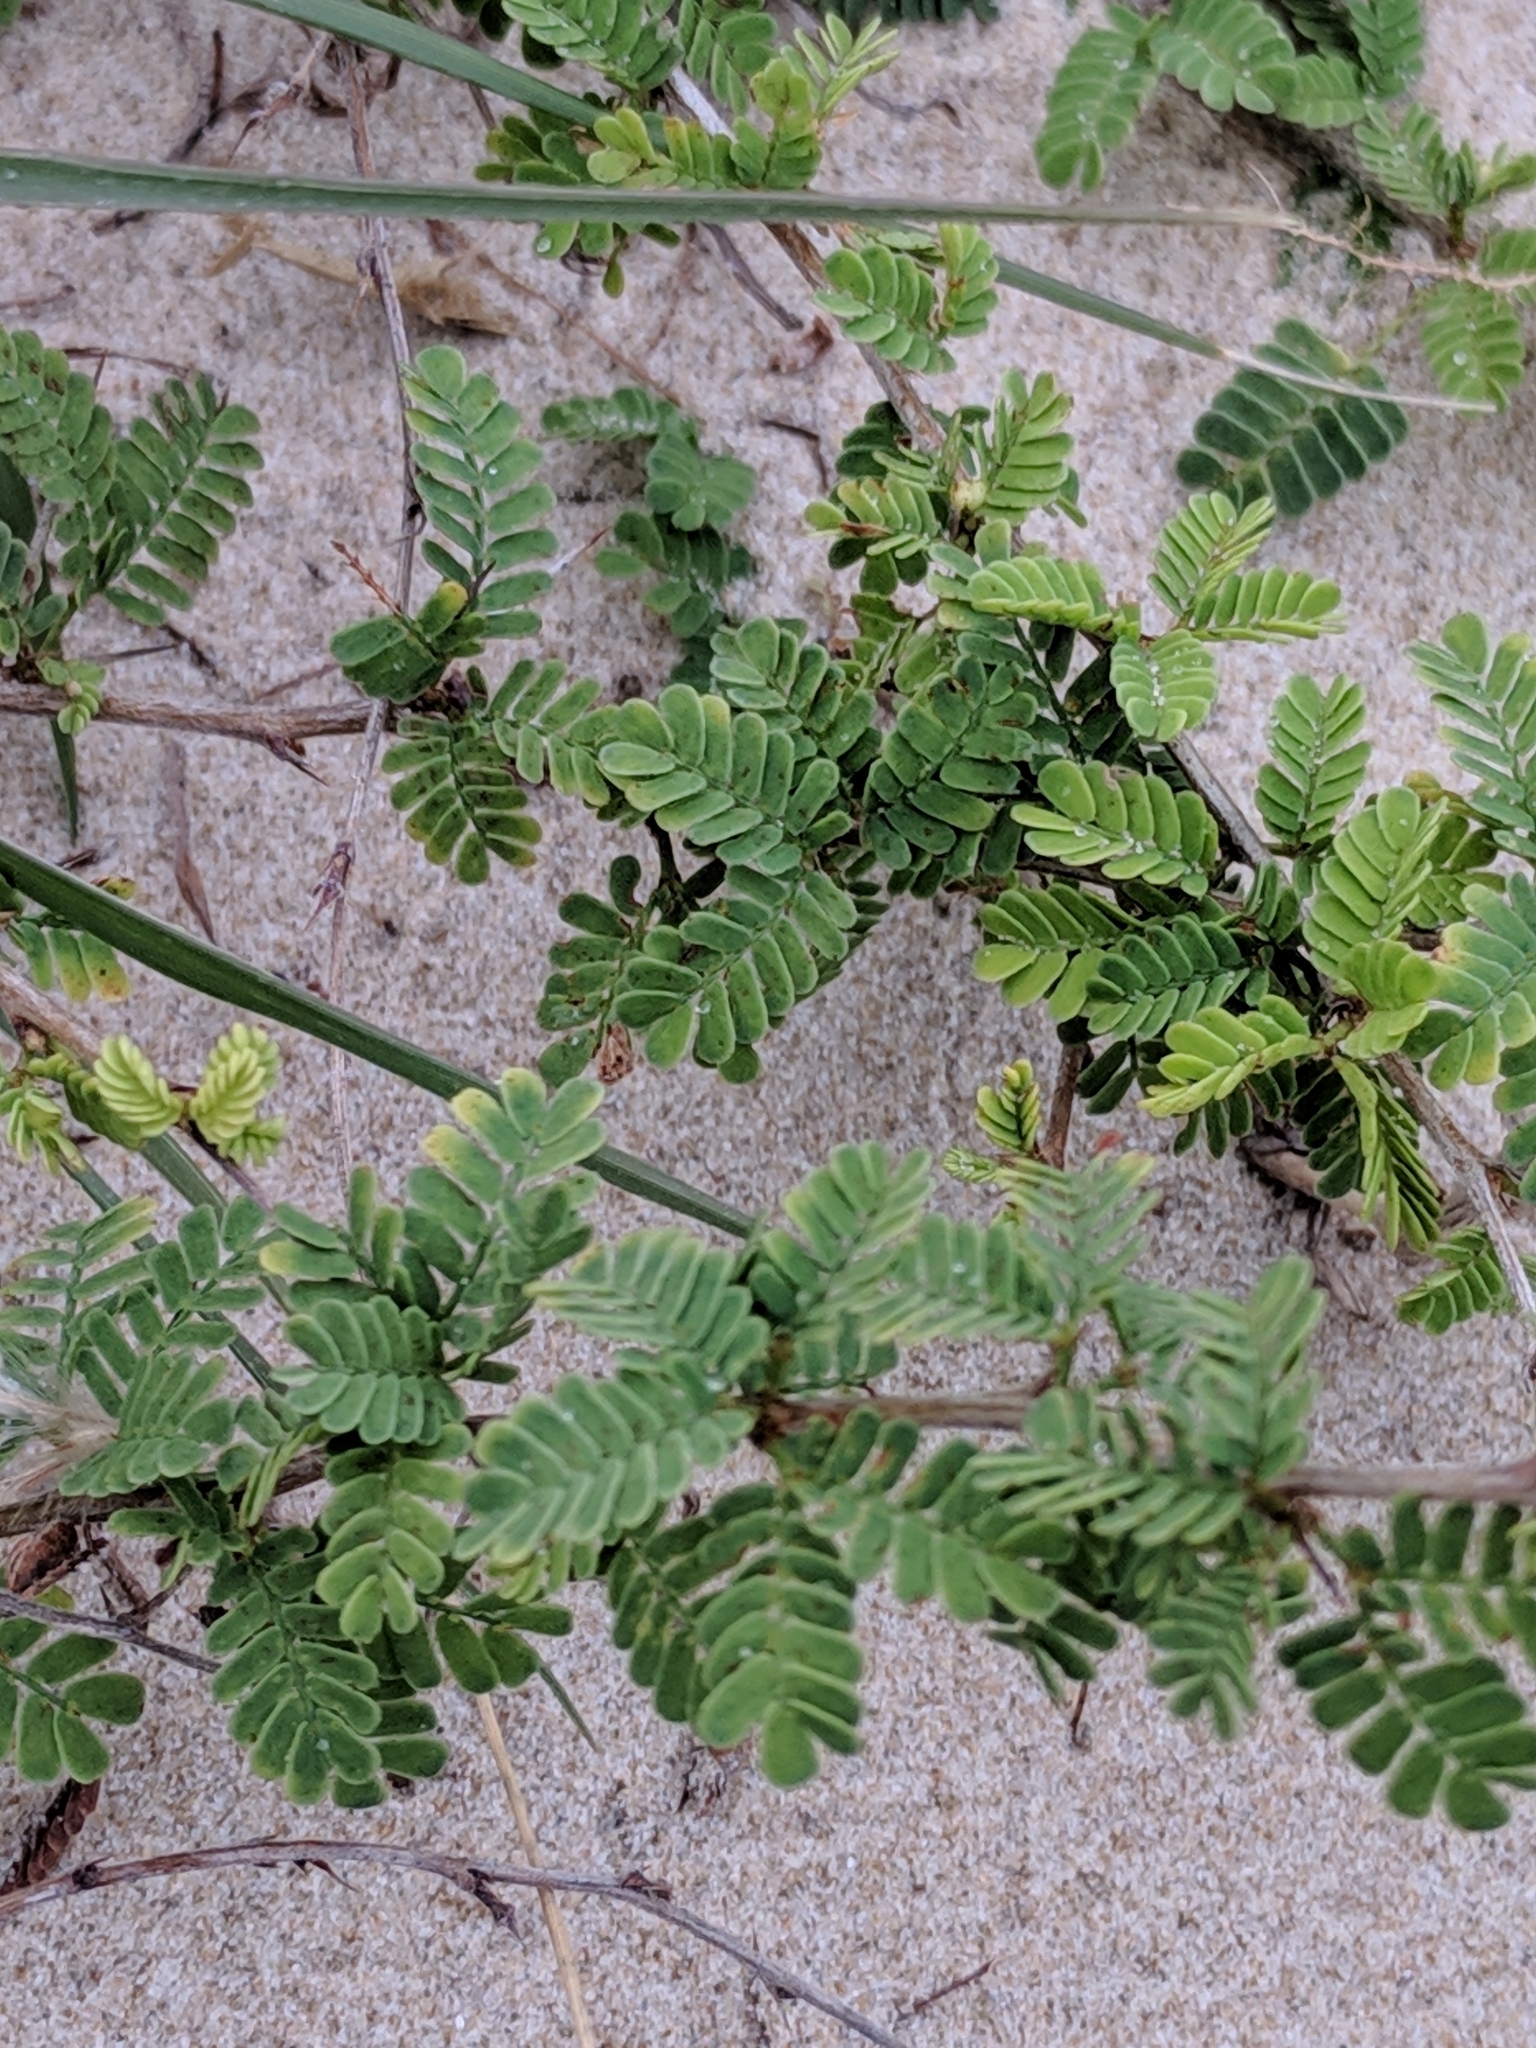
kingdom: Plantae
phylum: Tracheophyta
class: Magnoliopsida
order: Fabales
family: Fabaceae
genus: Prosopis
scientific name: Prosopis cinerascens
